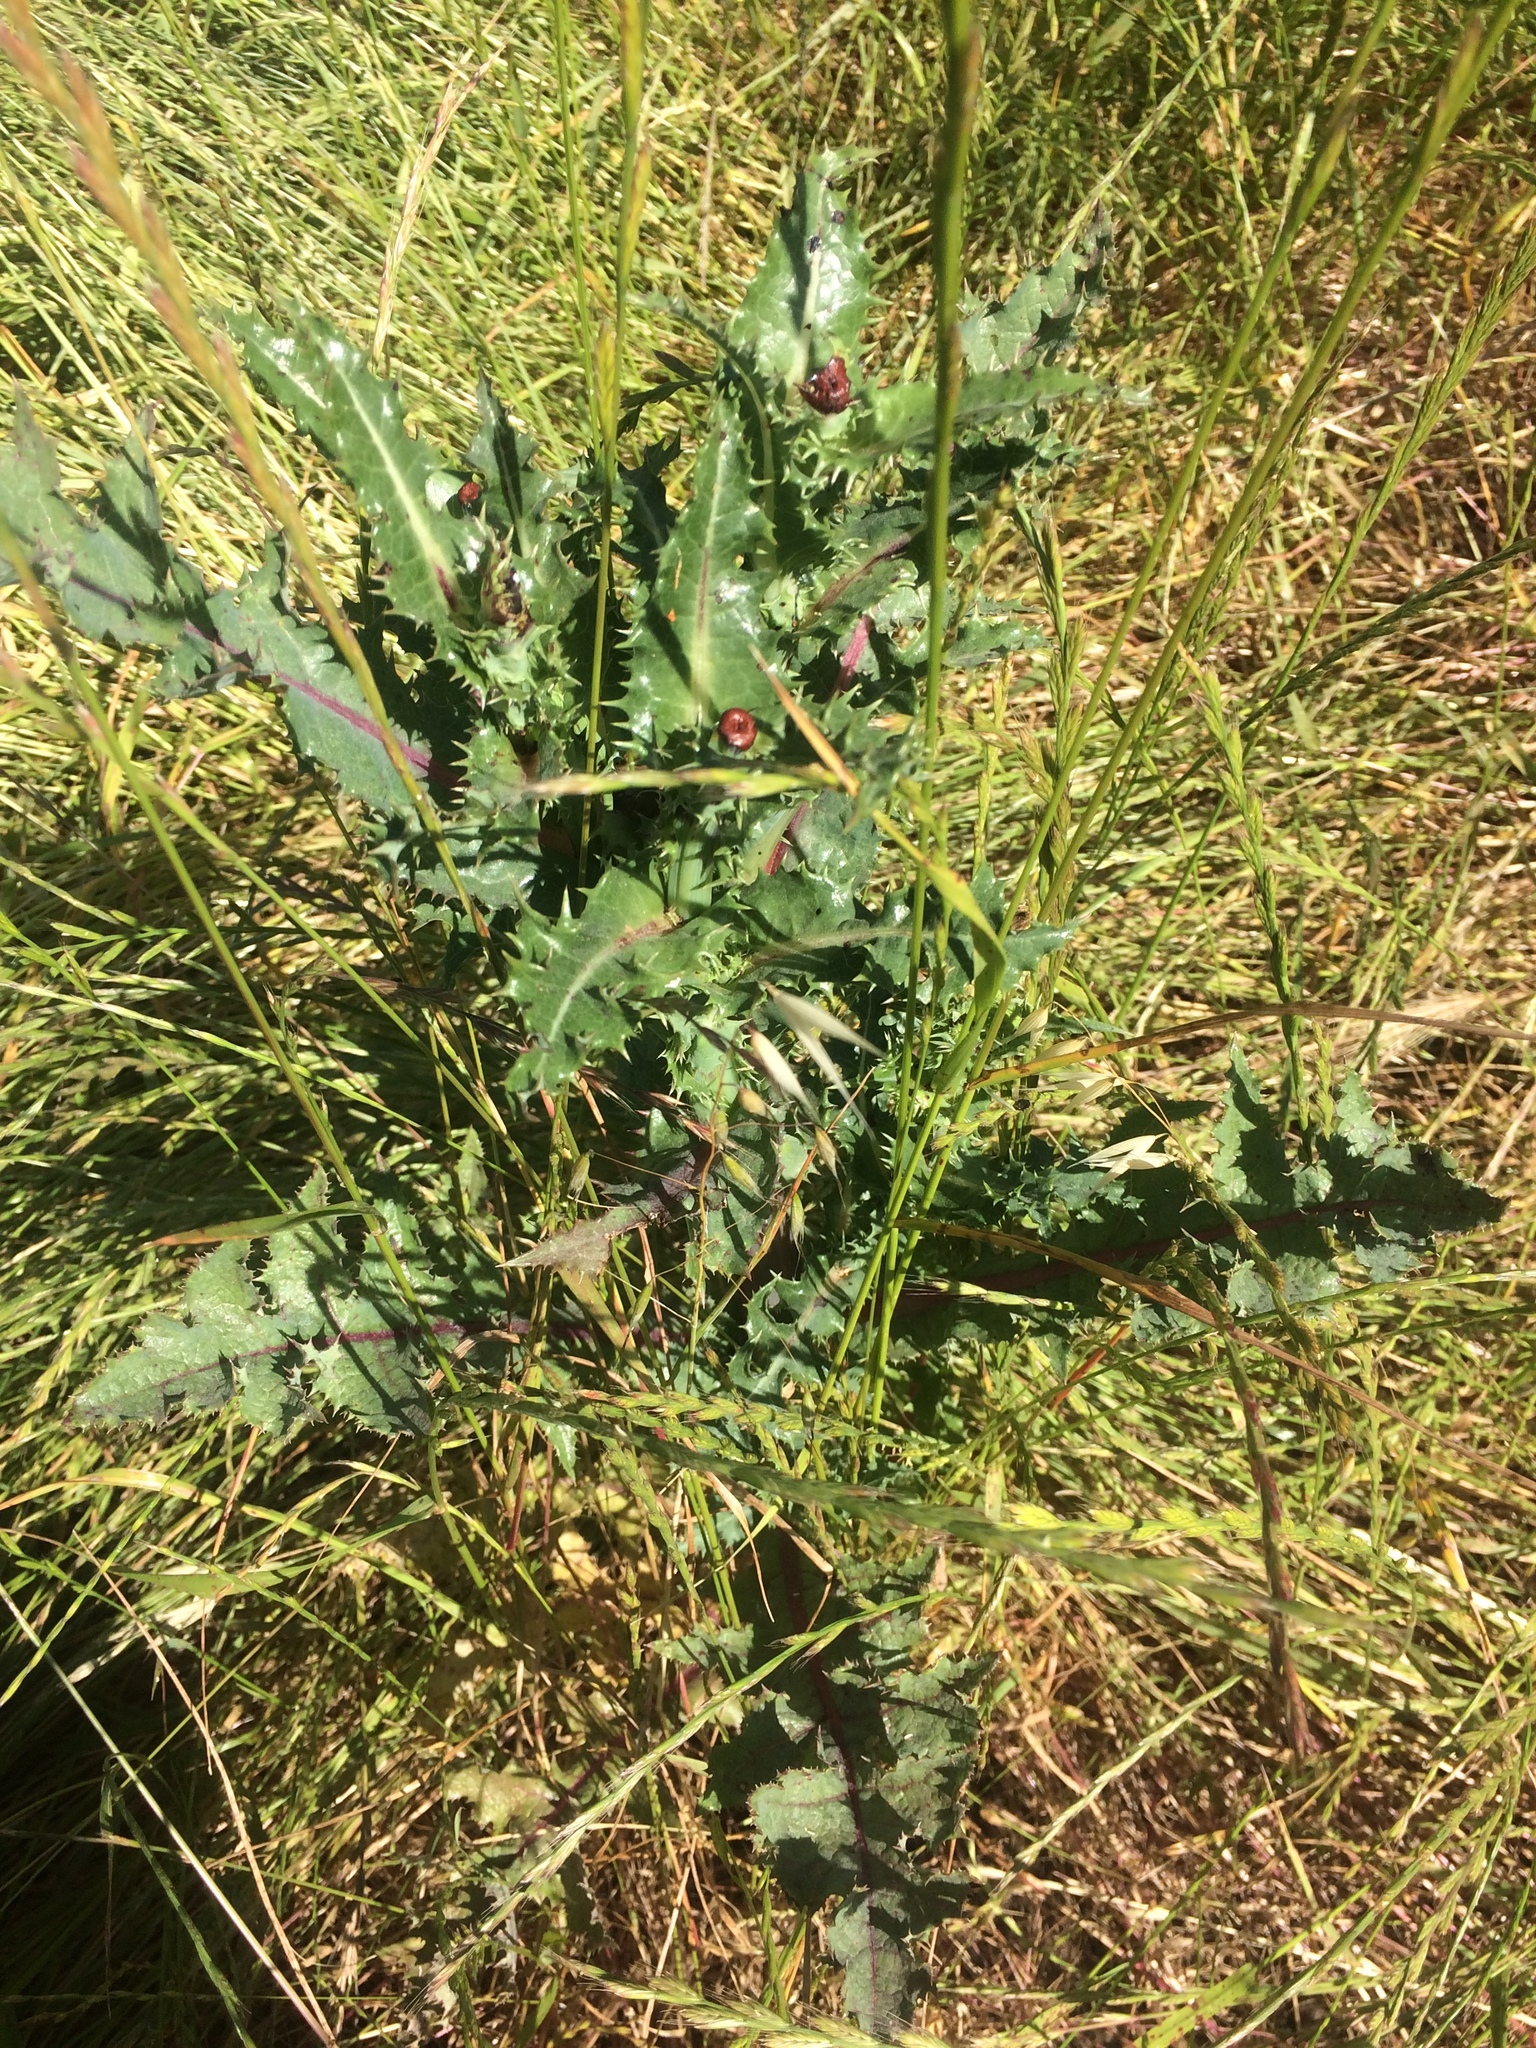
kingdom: Plantae
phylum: Tracheophyta
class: Magnoliopsida
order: Asterales
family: Asteraceae
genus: Sonchus
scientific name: Sonchus asper
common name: Prickly sow-thistle
